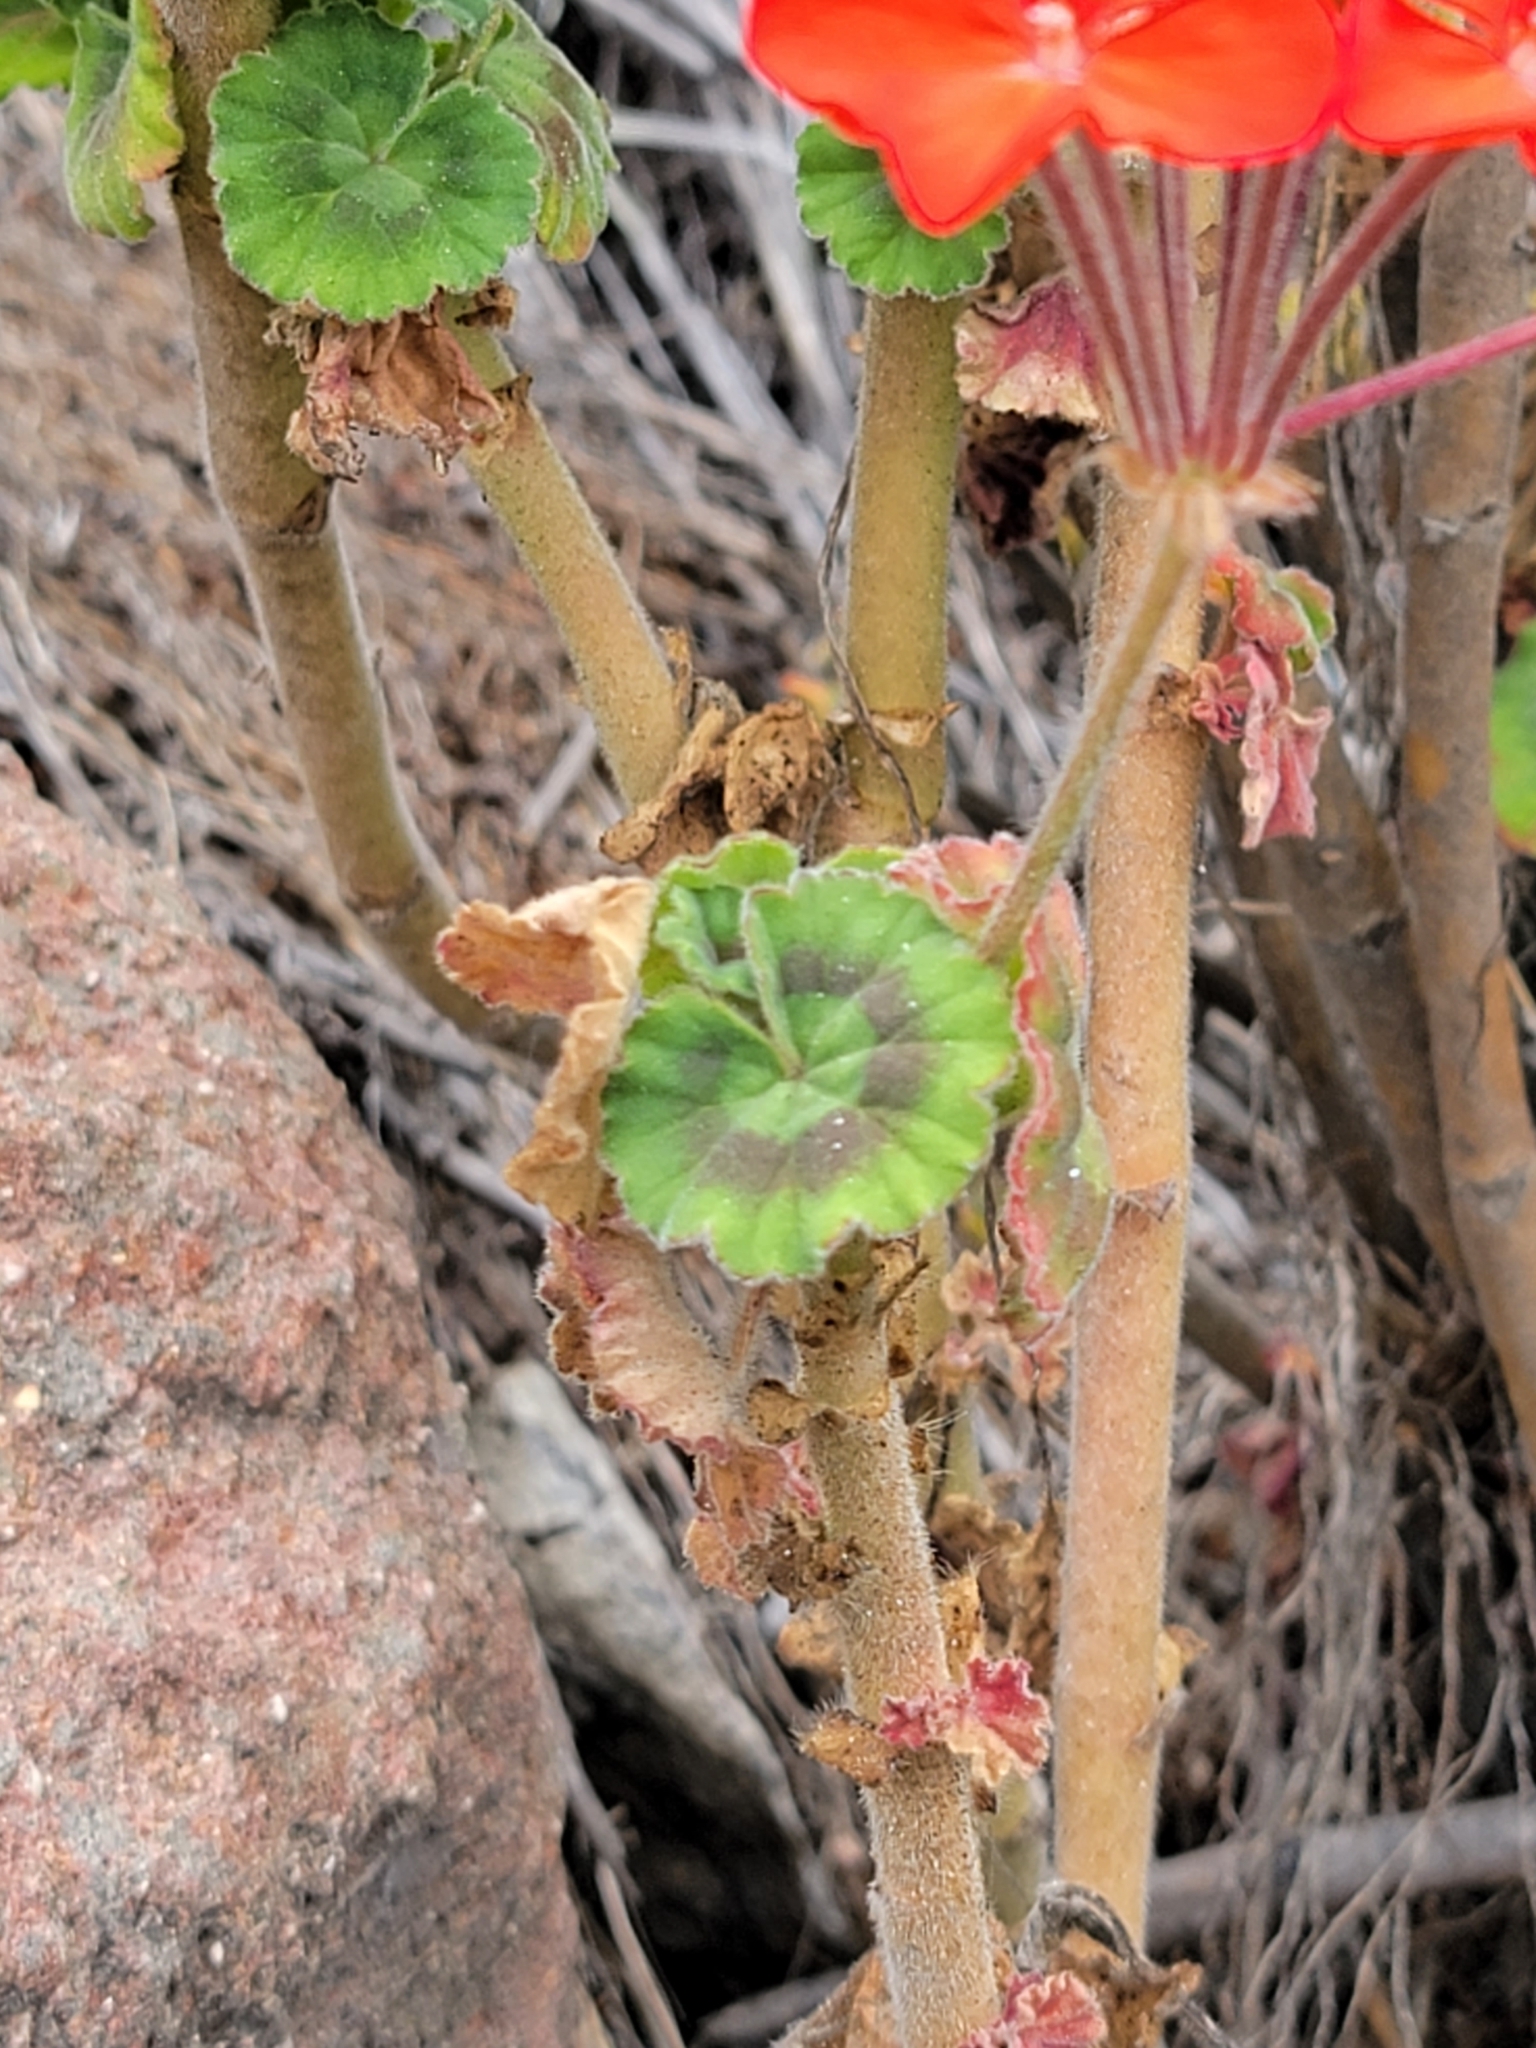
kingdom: Plantae
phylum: Tracheophyta
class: Magnoliopsida
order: Geraniales
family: Geraniaceae
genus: Pelargonium
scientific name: Pelargonium hybridum
